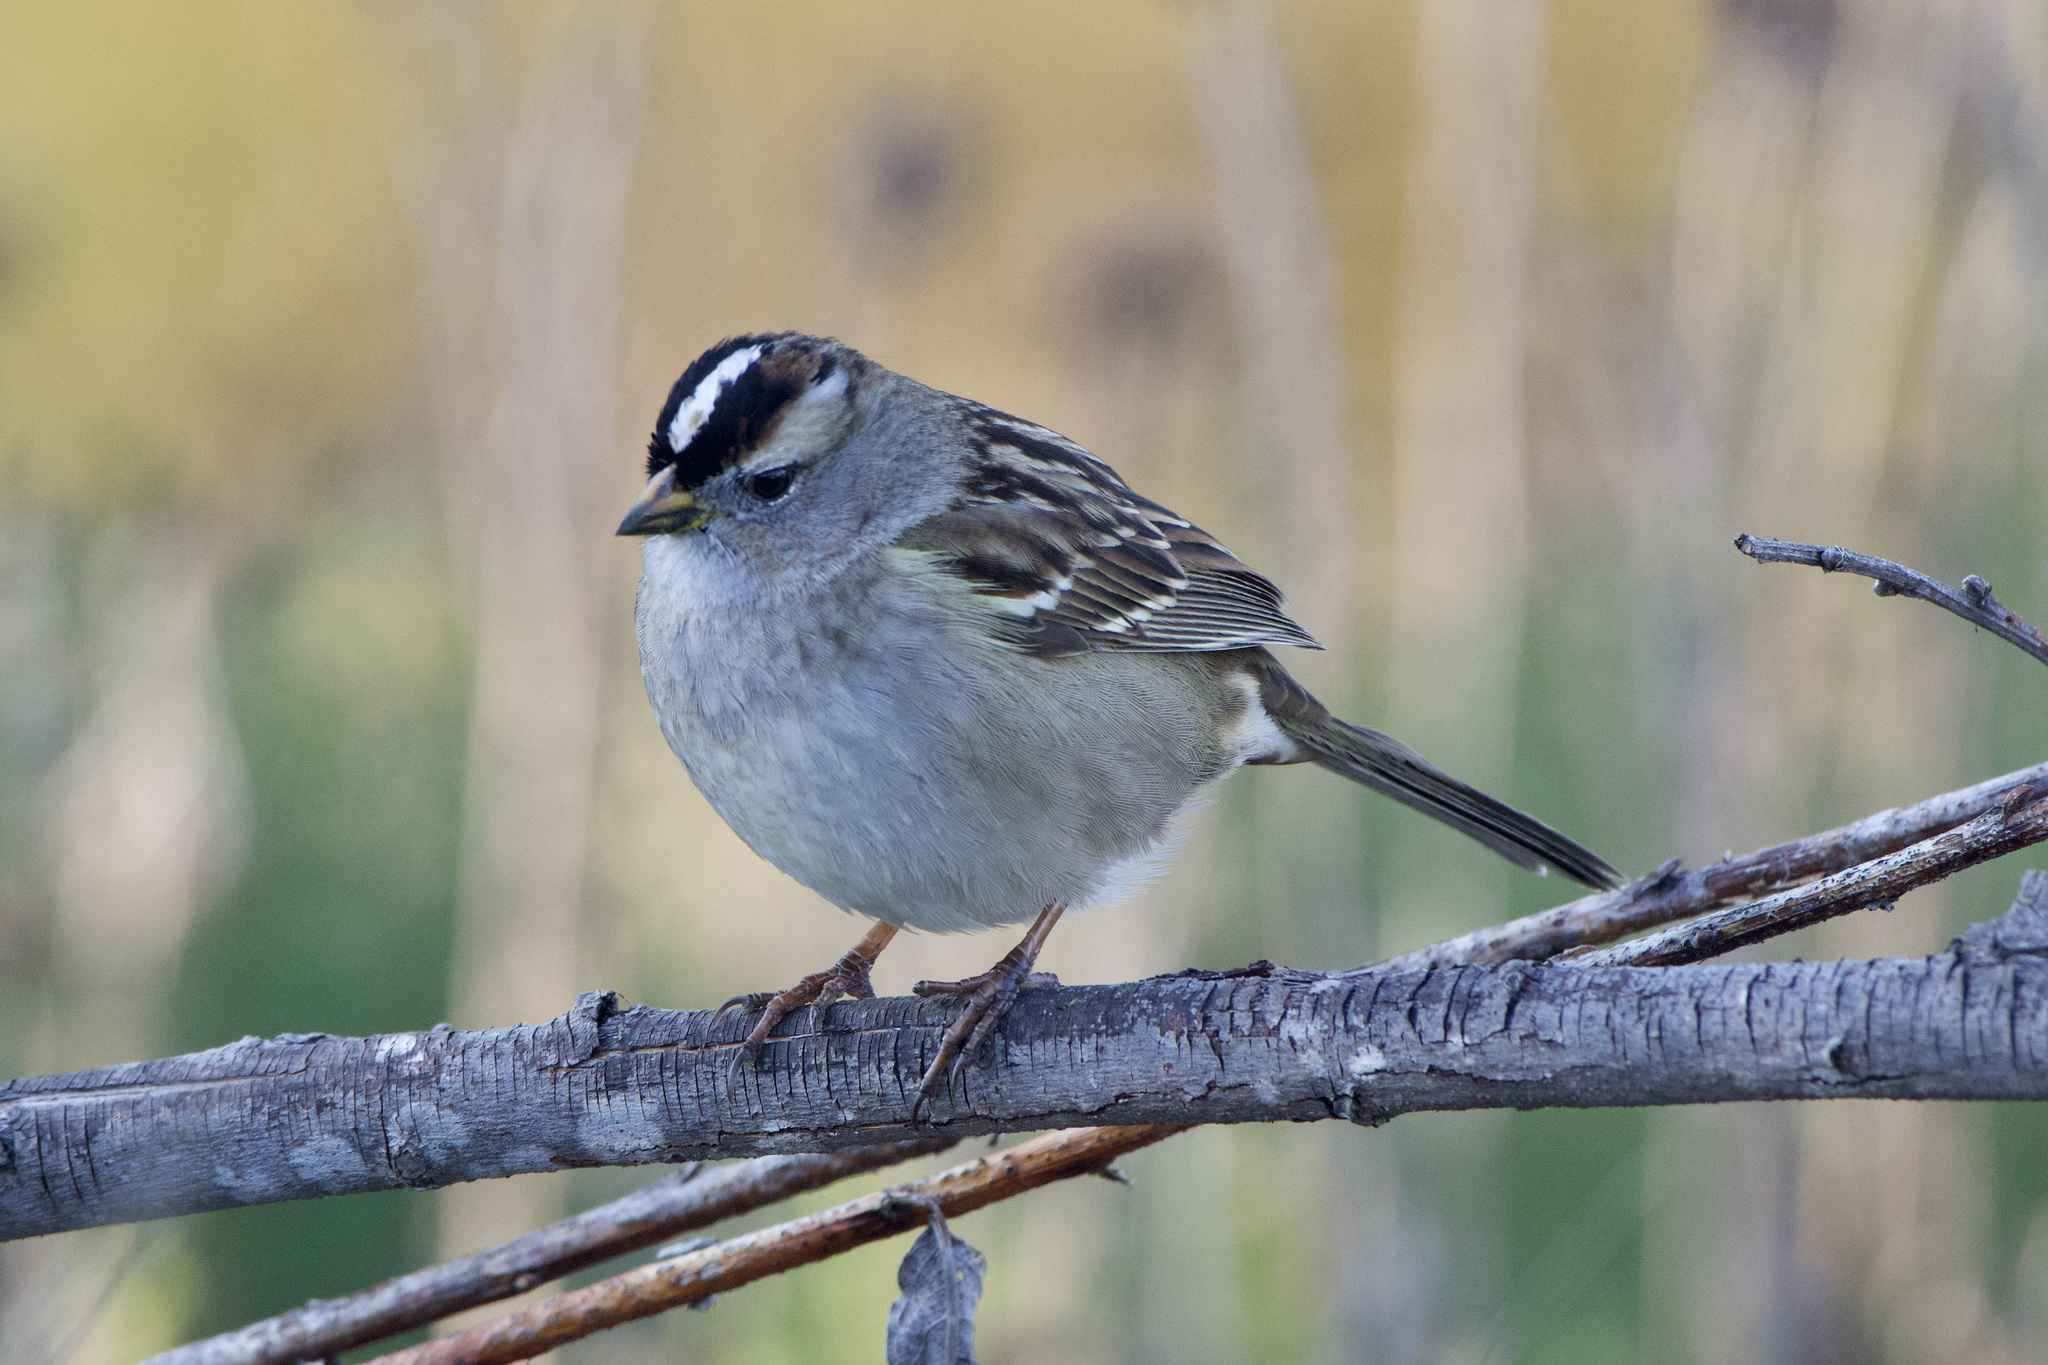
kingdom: Animalia
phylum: Chordata
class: Aves
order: Passeriformes
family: Passerellidae
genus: Zonotrichia
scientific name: Zonotrichia leucophrys
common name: White-crowned sparrow
